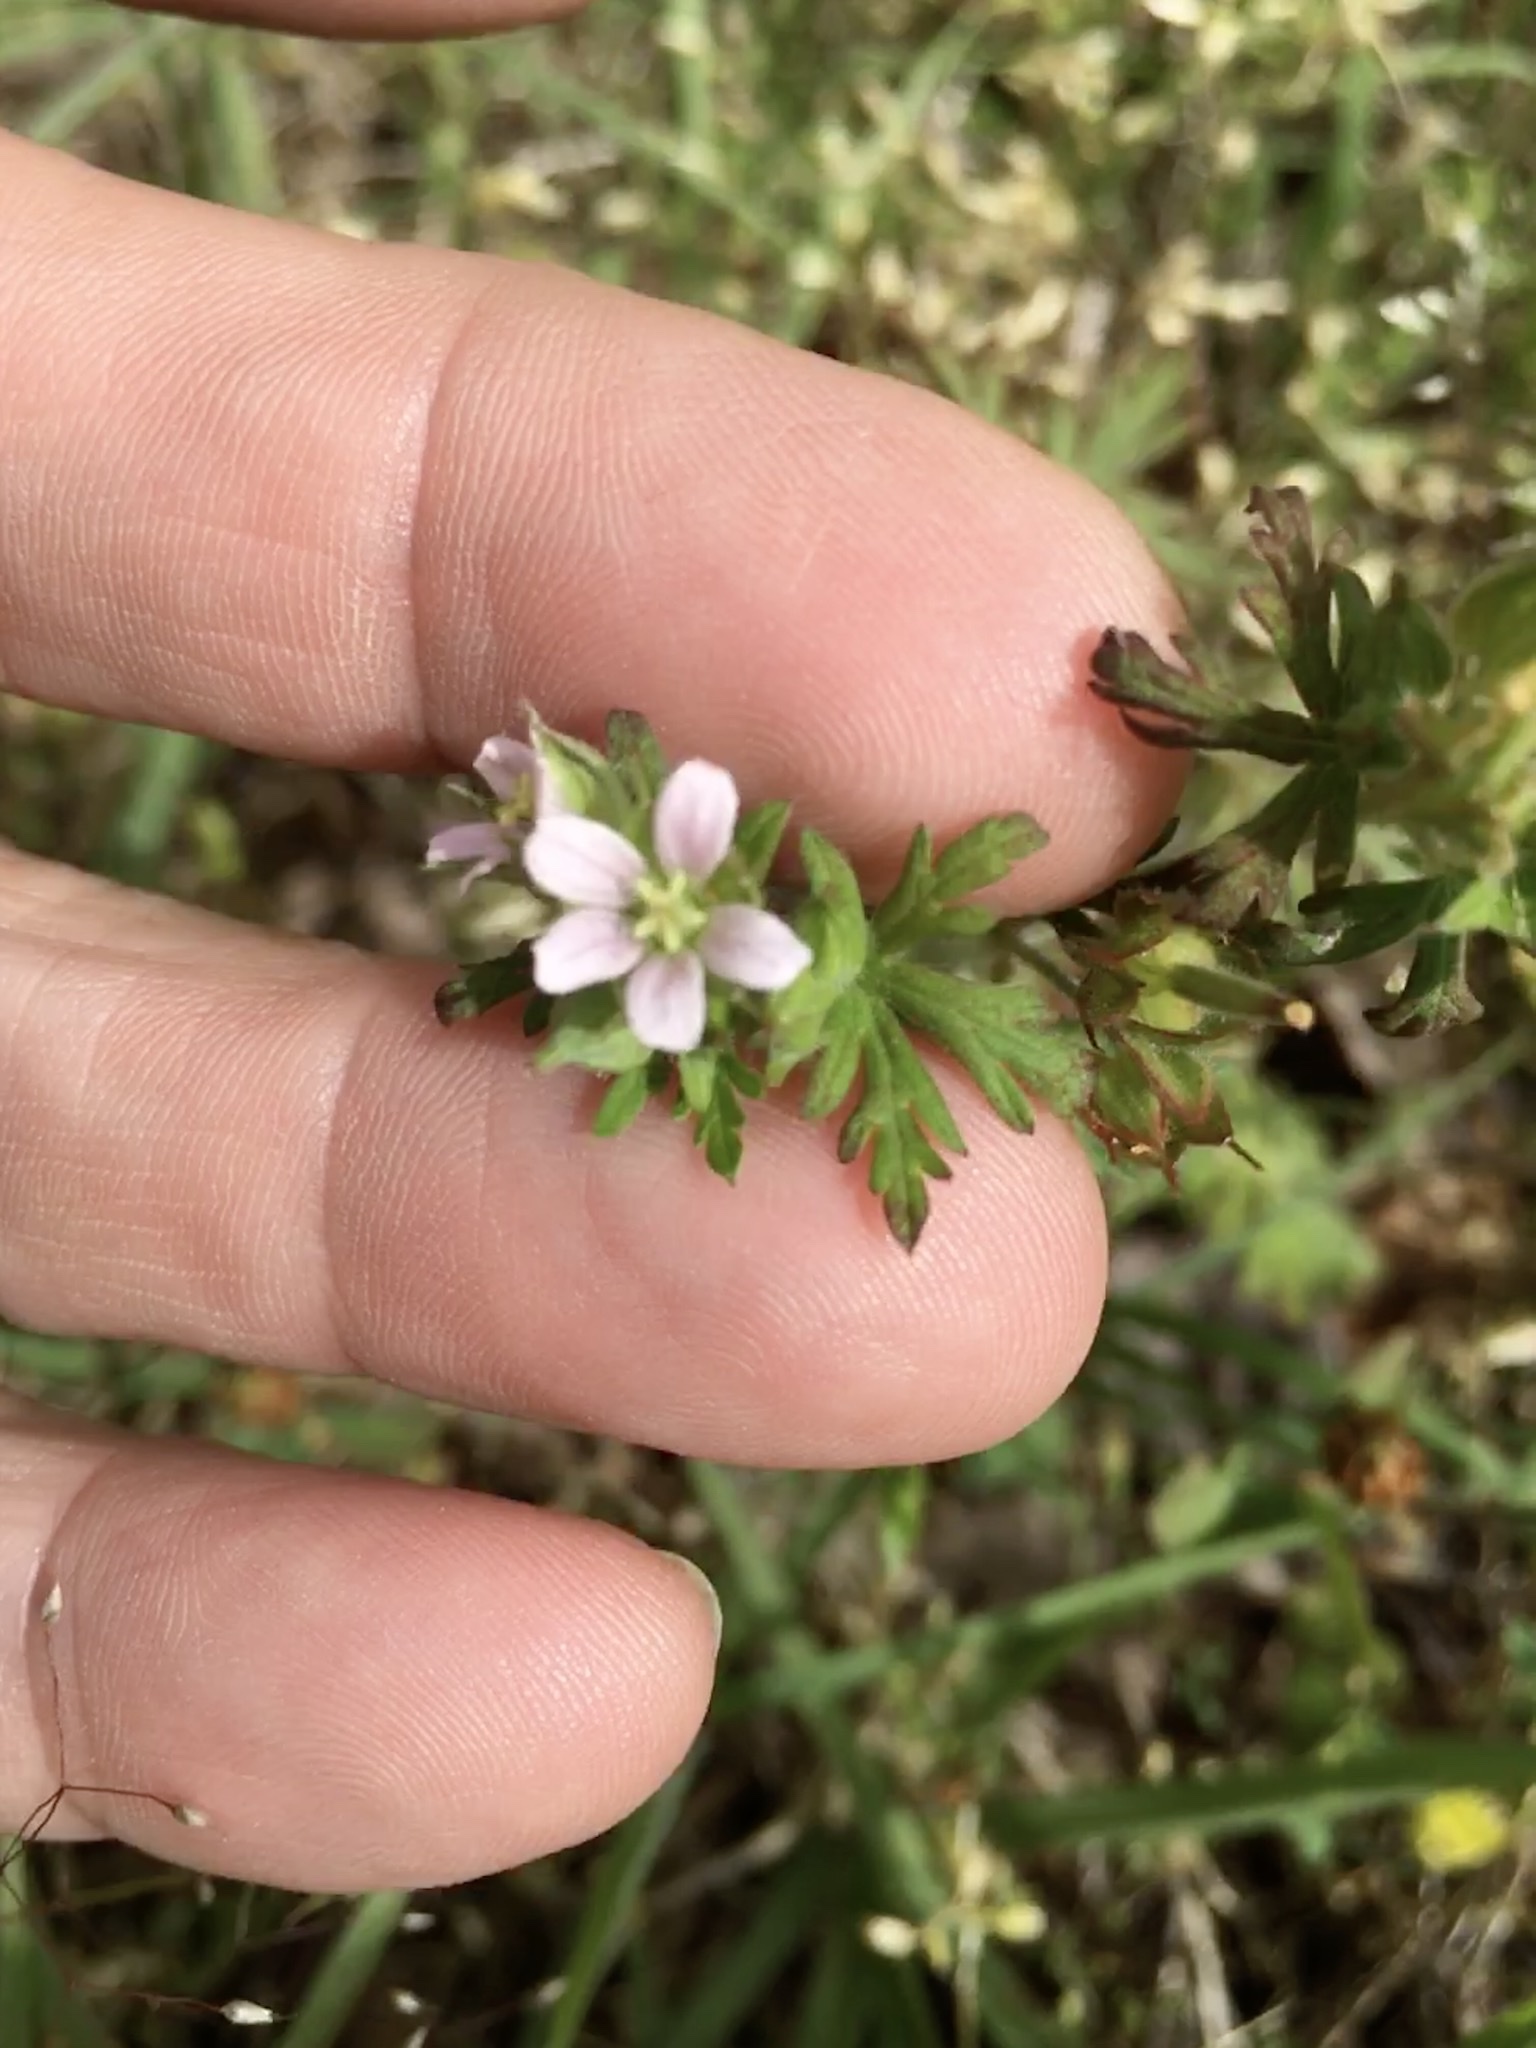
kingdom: Plantae
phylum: Tracheophyta
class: Magnoliopsida
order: Geraniales
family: Geraniaceae
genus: Geranium
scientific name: Geranium carolinianum
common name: Carolina crane's-bill
